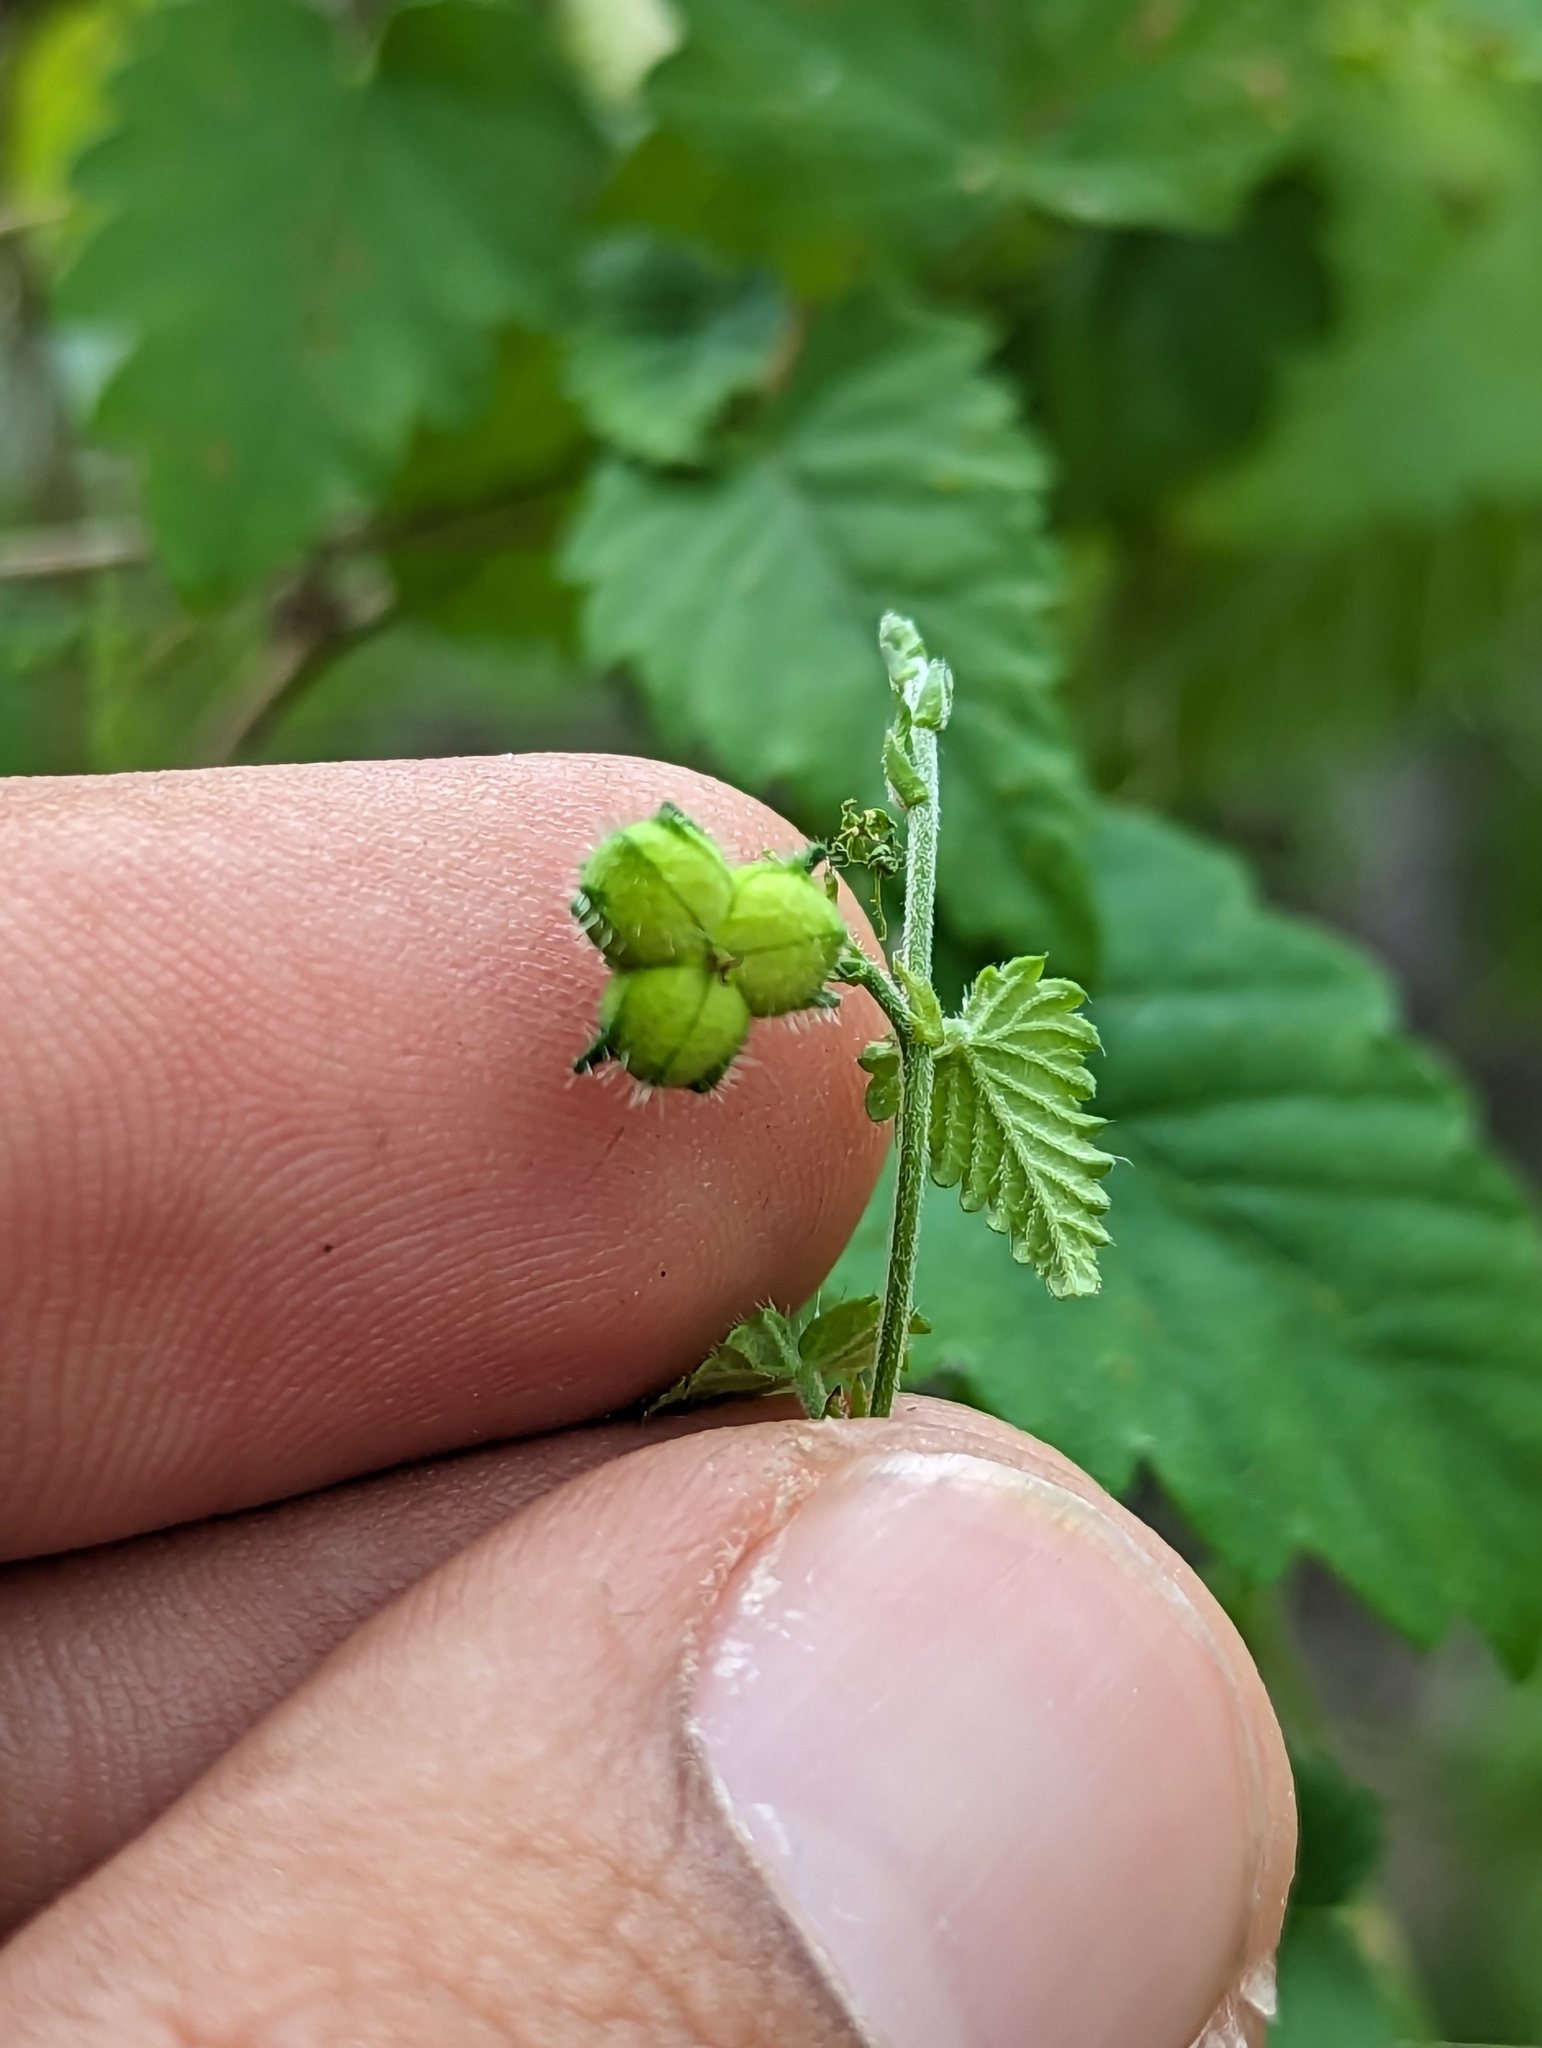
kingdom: Plantae
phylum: Tracheophyta
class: Magnoliopsida
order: Malpighiales
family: Euphorbiaceae
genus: Tragia
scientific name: Tragia jonesii
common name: Jones' noseburn
